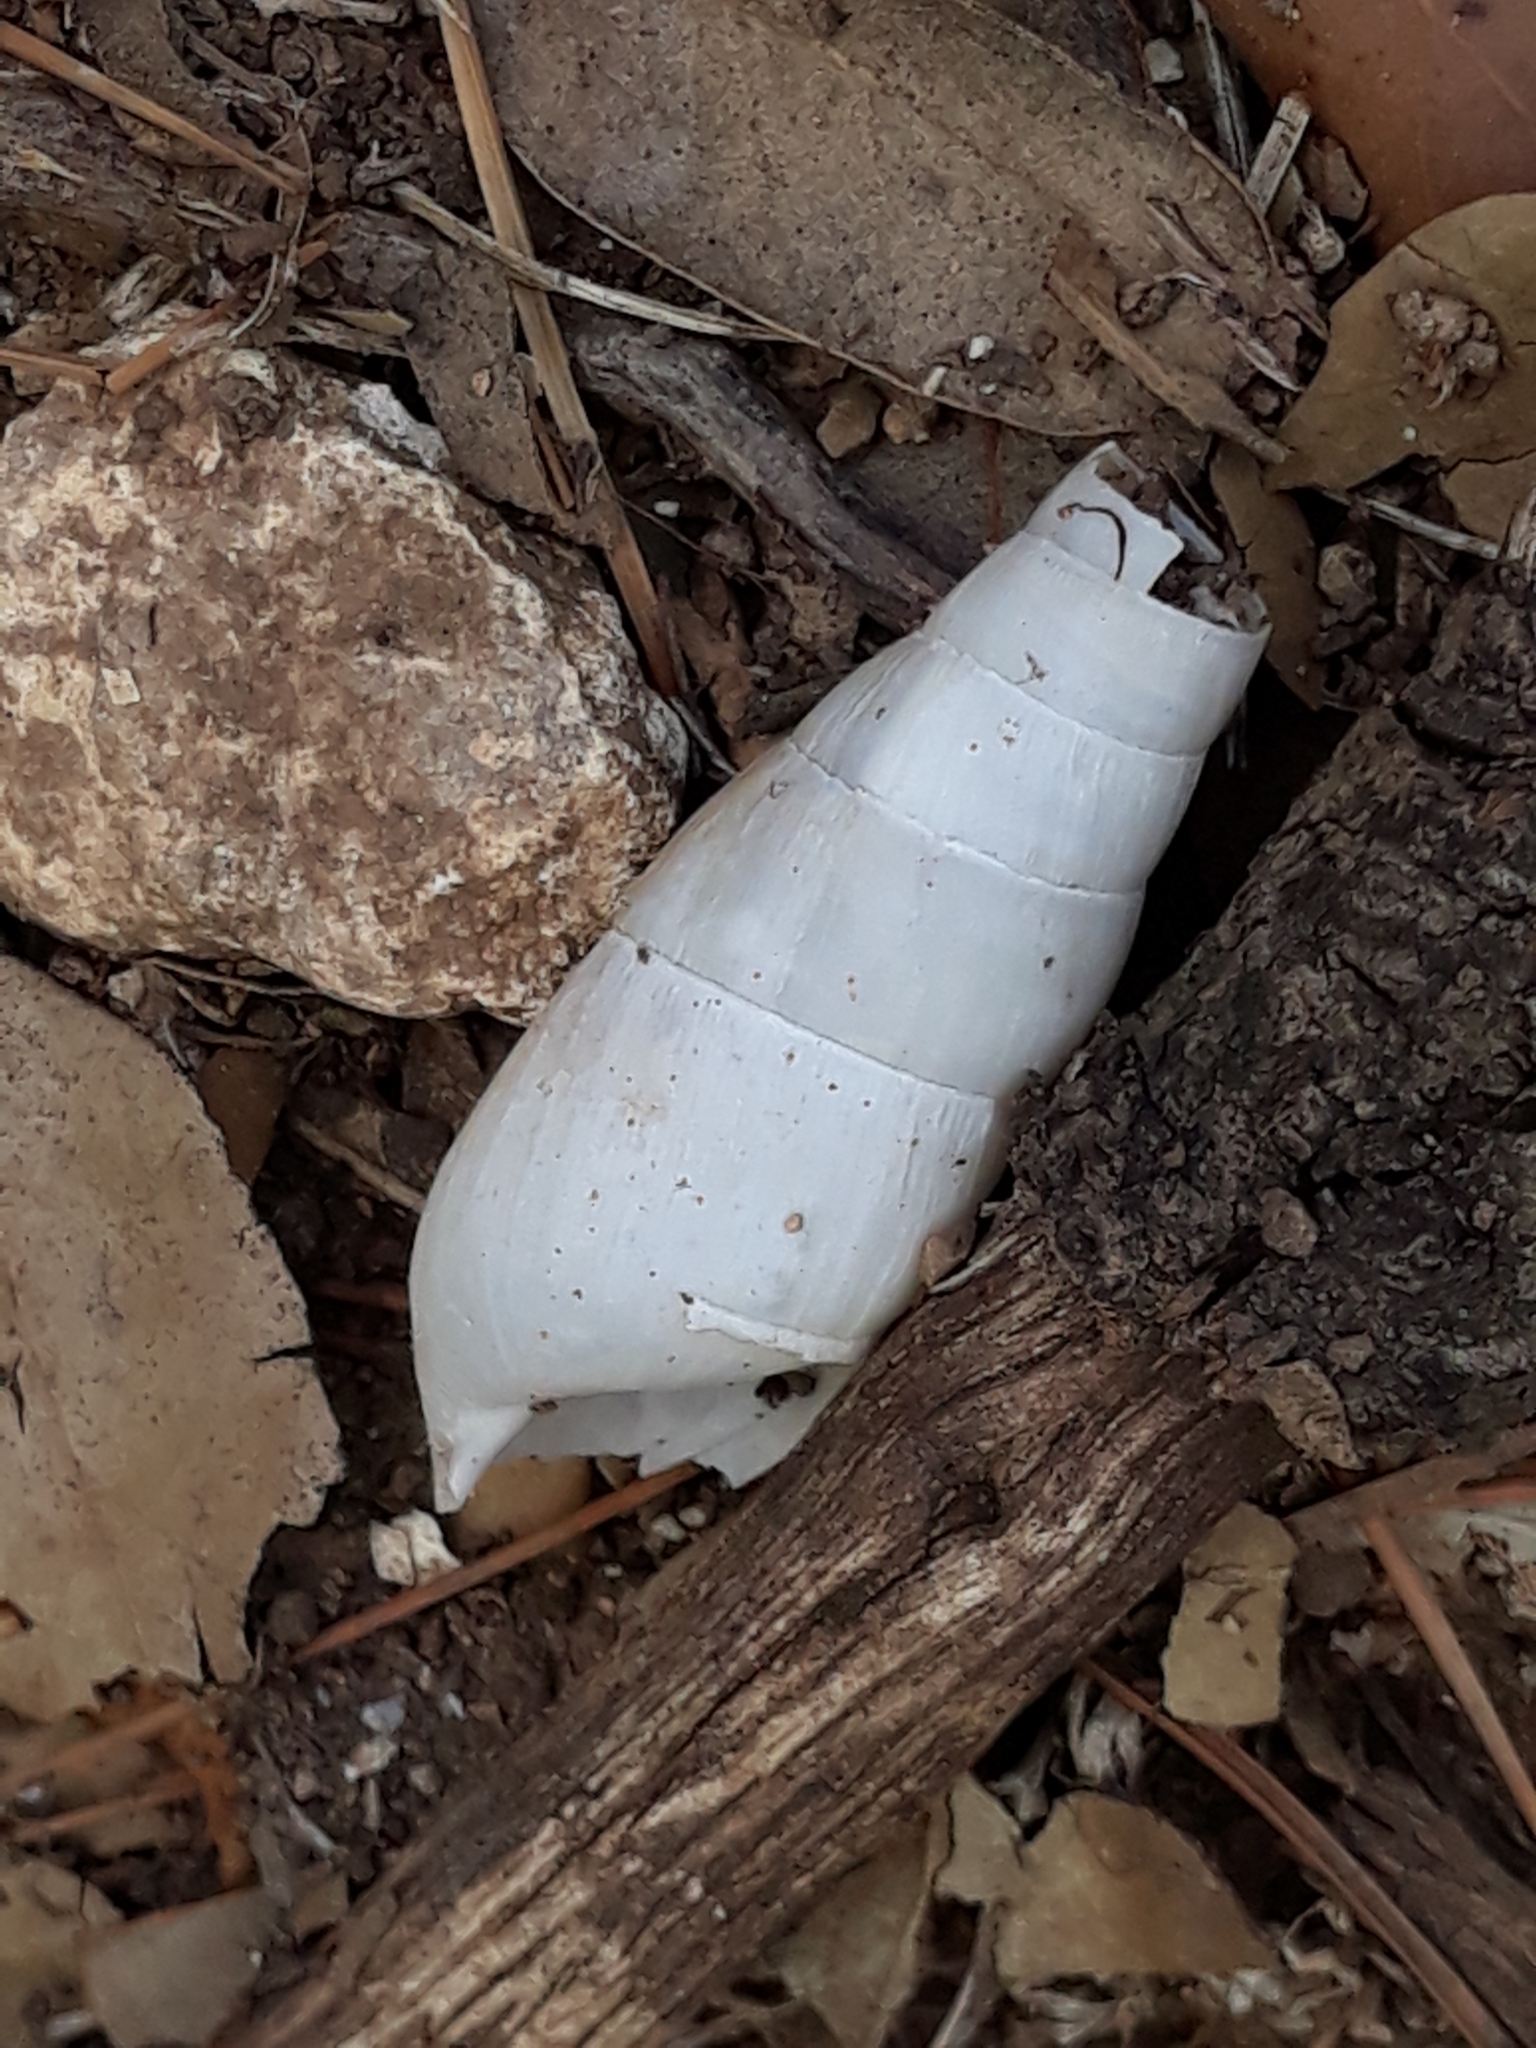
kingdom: Animalia
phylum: Mollusca
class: Gastropoda
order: Stylommatophora
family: Achatinidae
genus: Rumina
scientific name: Rumina decollata
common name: Decollate snail
